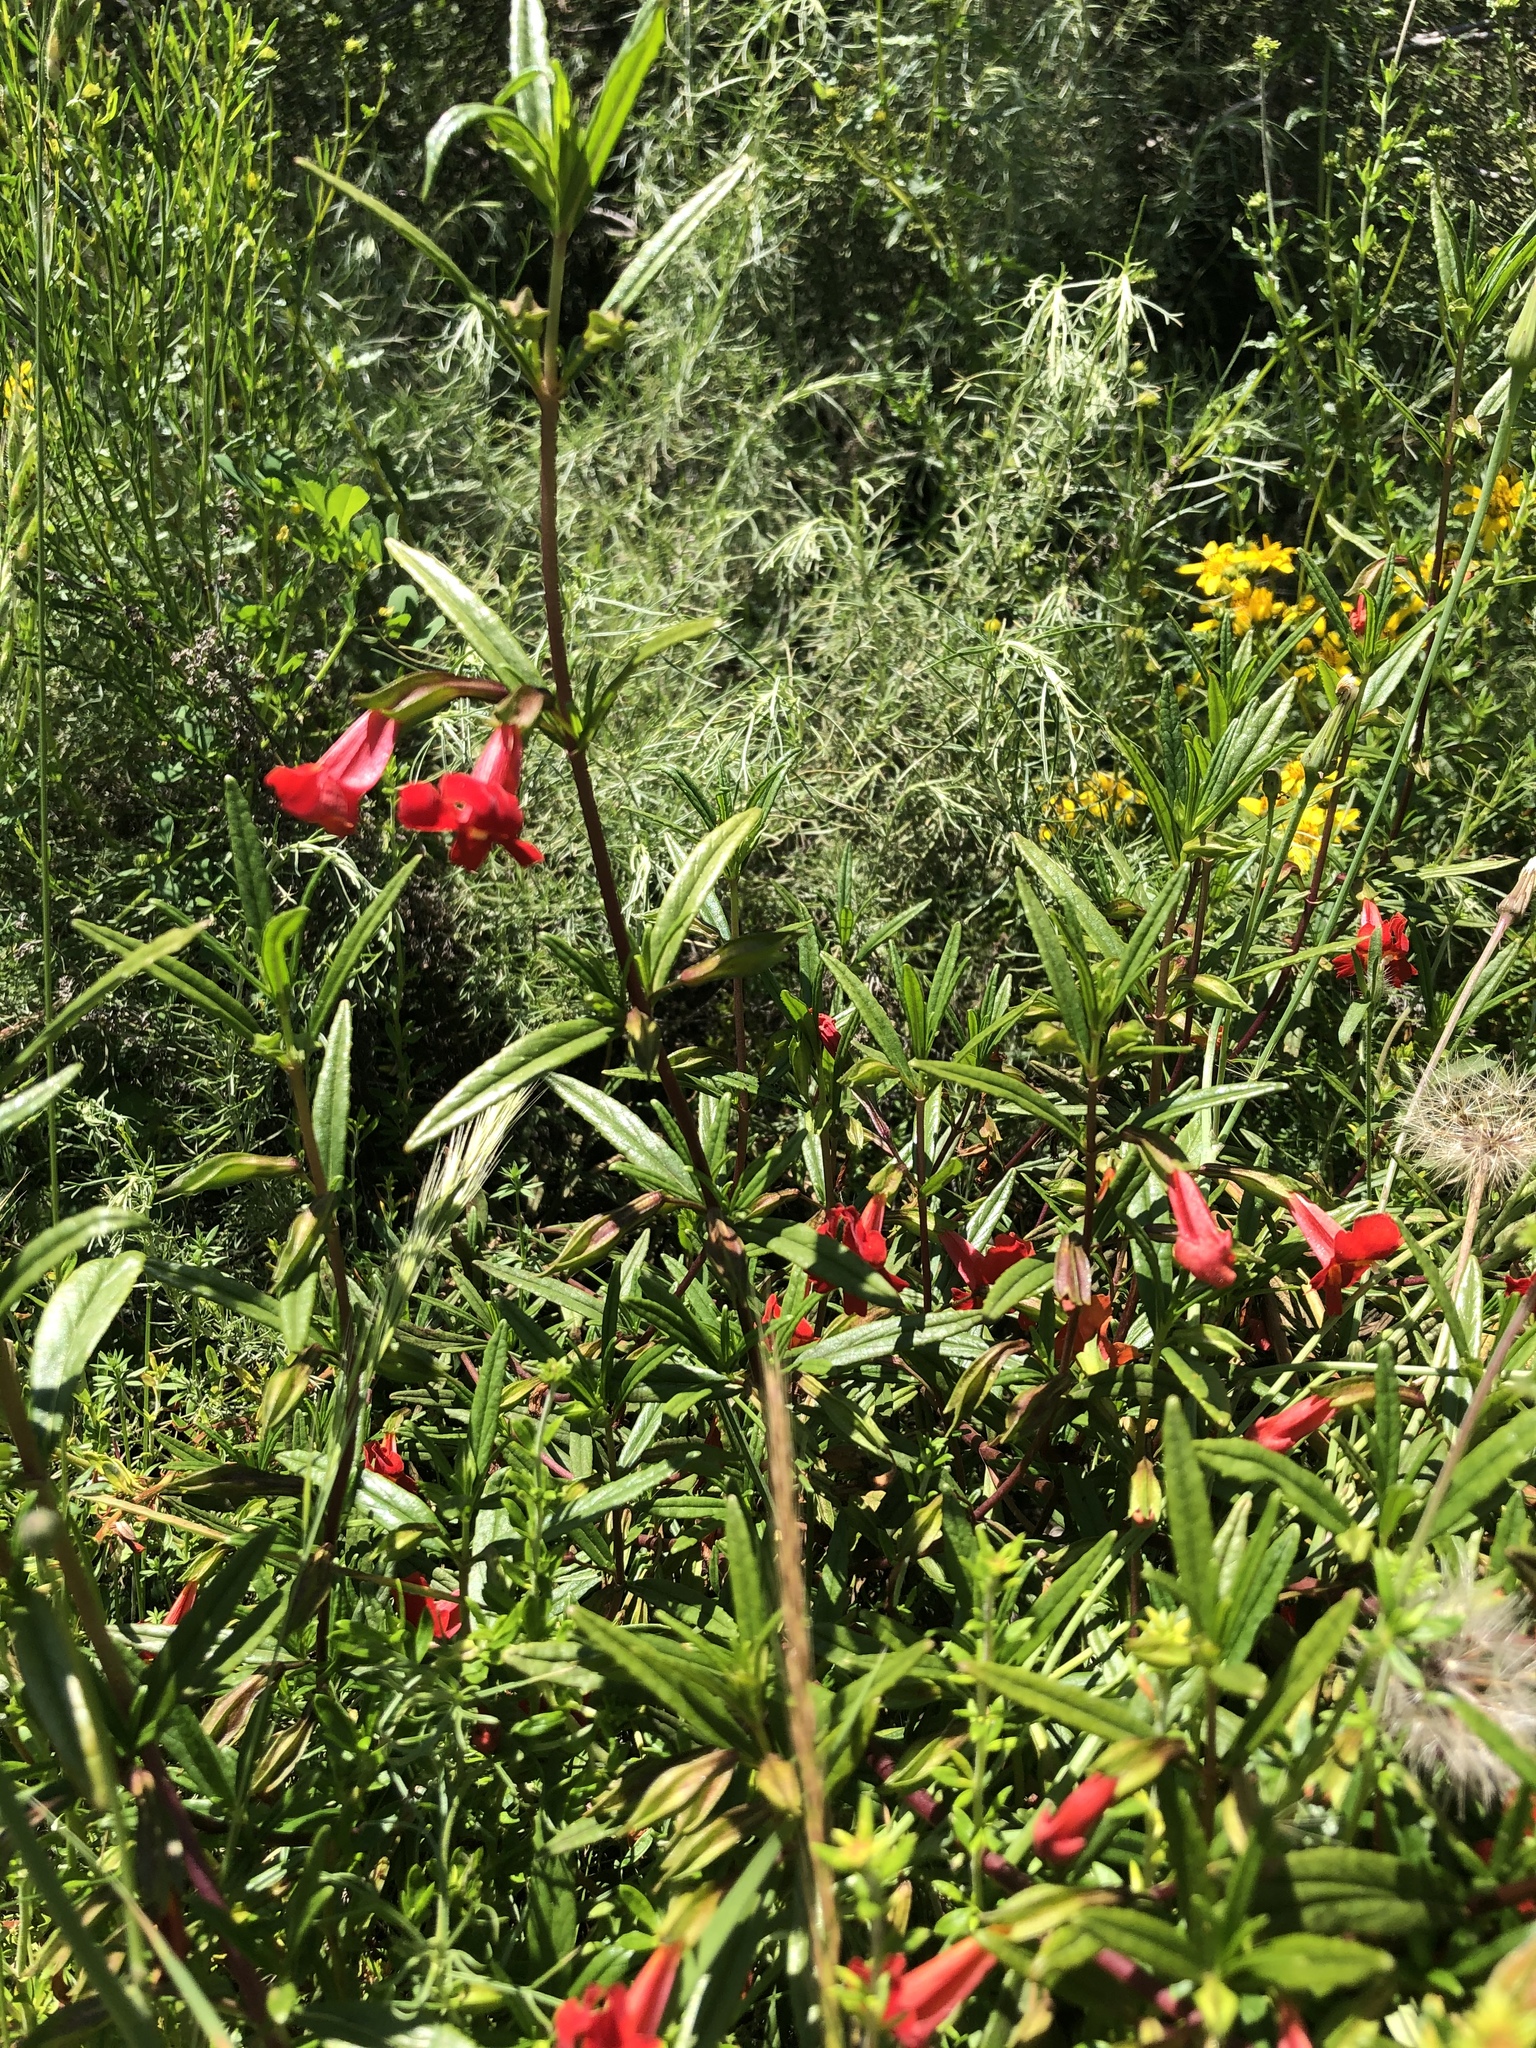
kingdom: Plantae
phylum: Tracheophyta
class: Magnoliopsida
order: Lamiales
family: Phrymaceae
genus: Diplacus
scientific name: Diplacus puniceus
